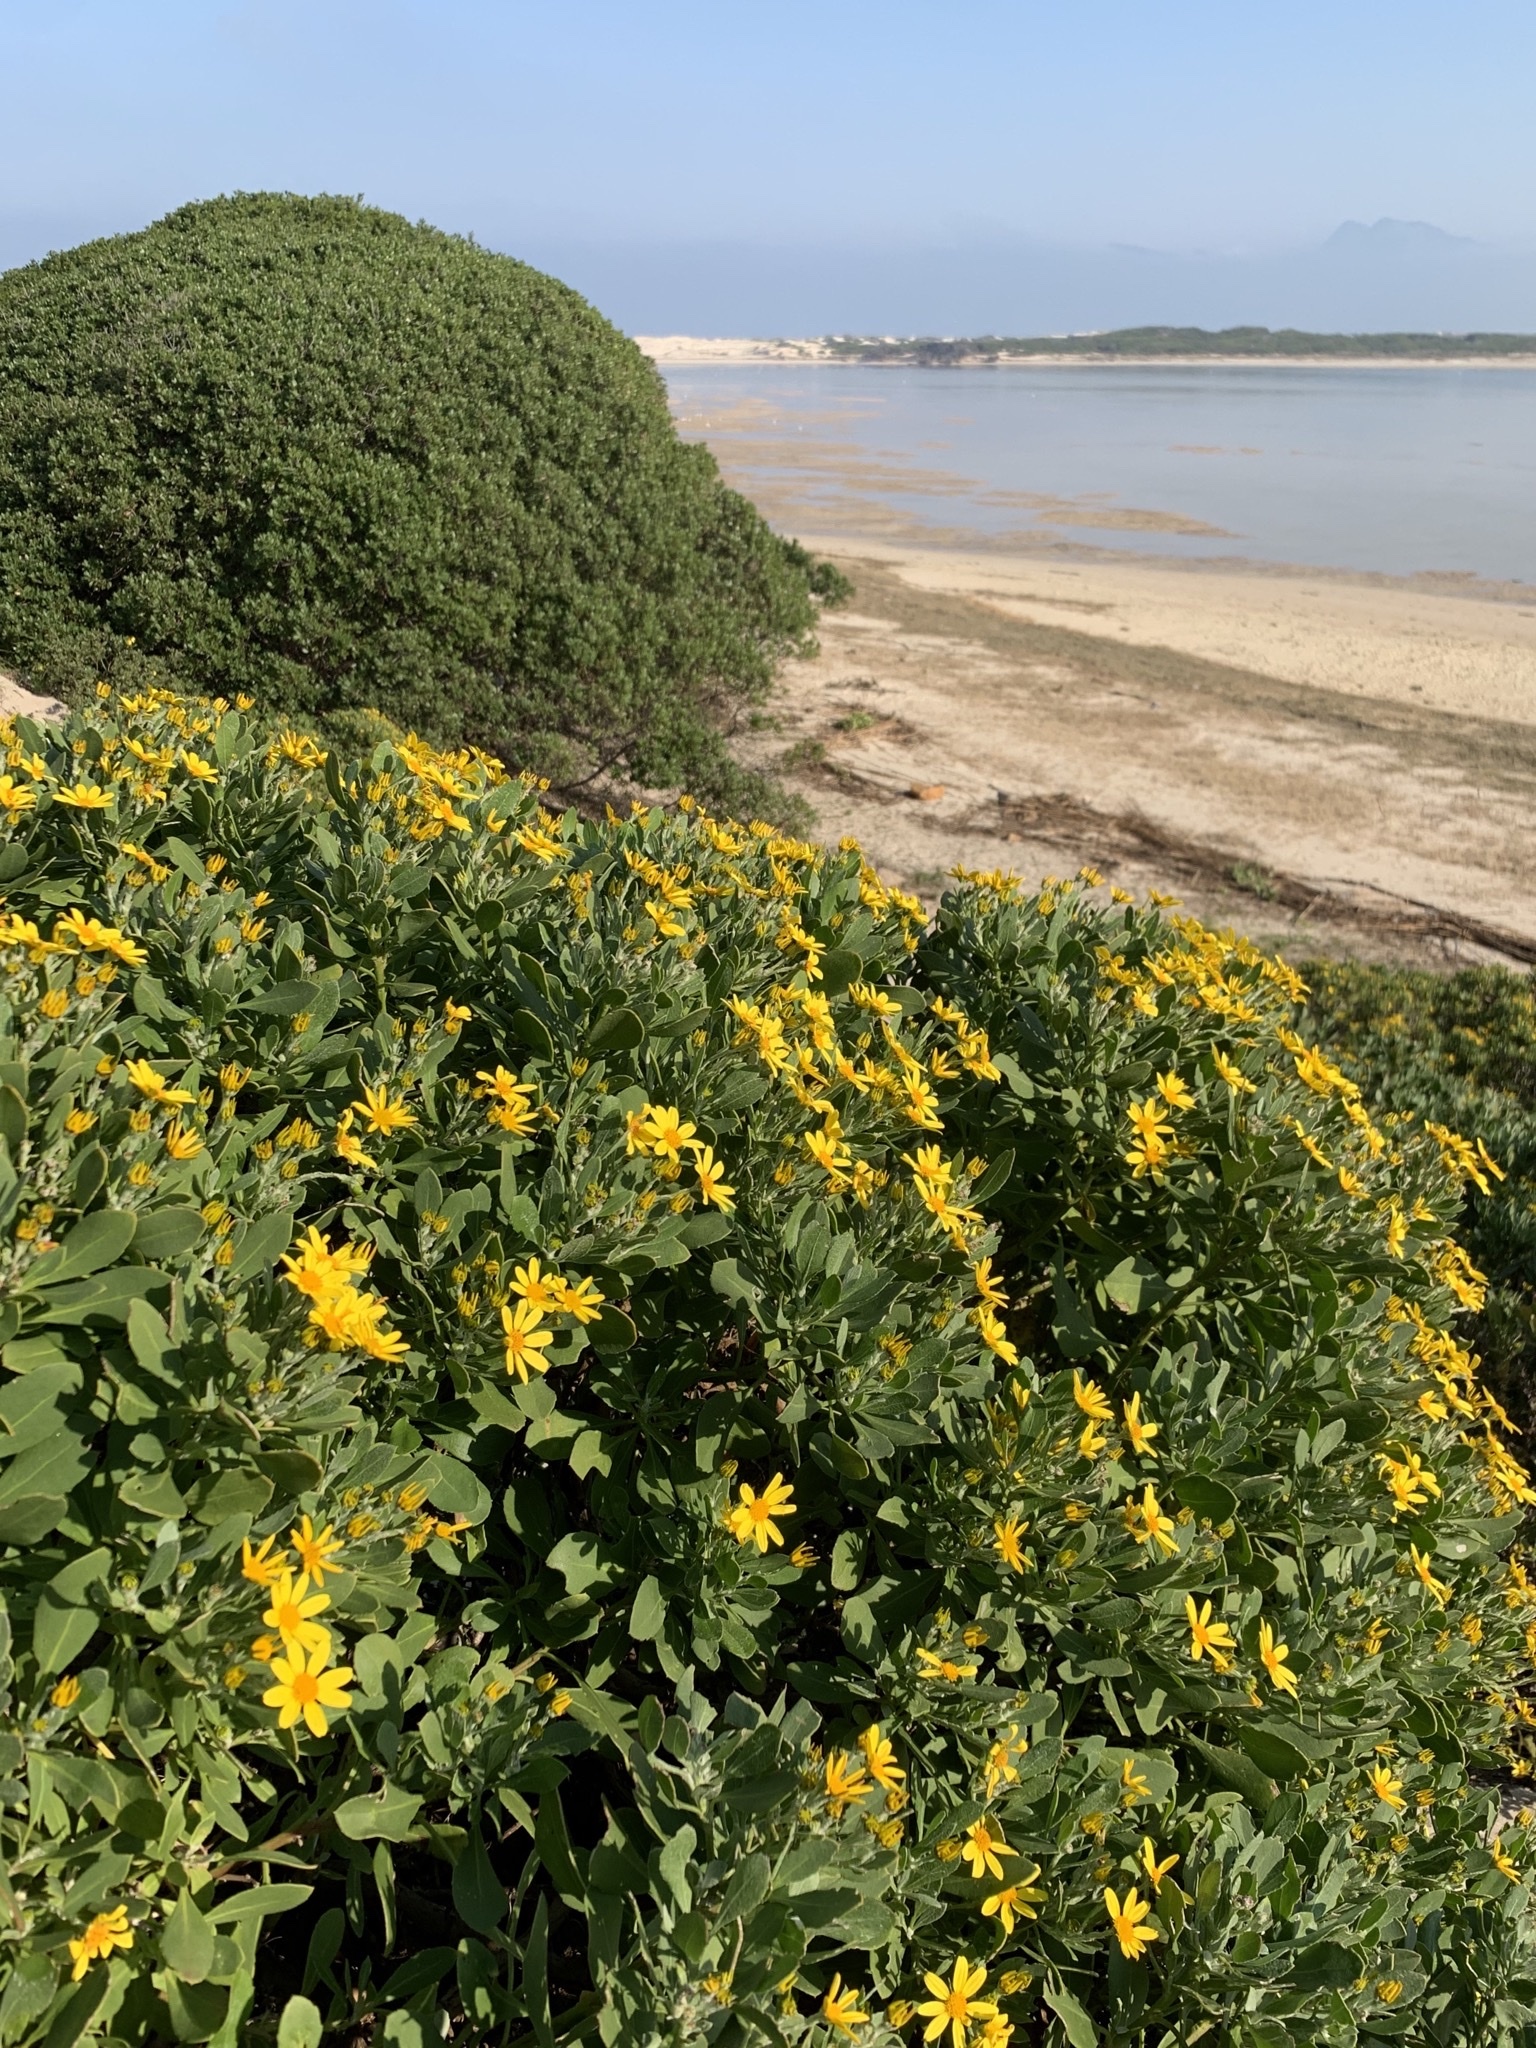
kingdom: Plantae
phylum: Tracheophyta
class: Magnoliopsida
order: Asterales
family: Asteraceae
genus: Osteospermum
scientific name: Osteospermum moniliferum
